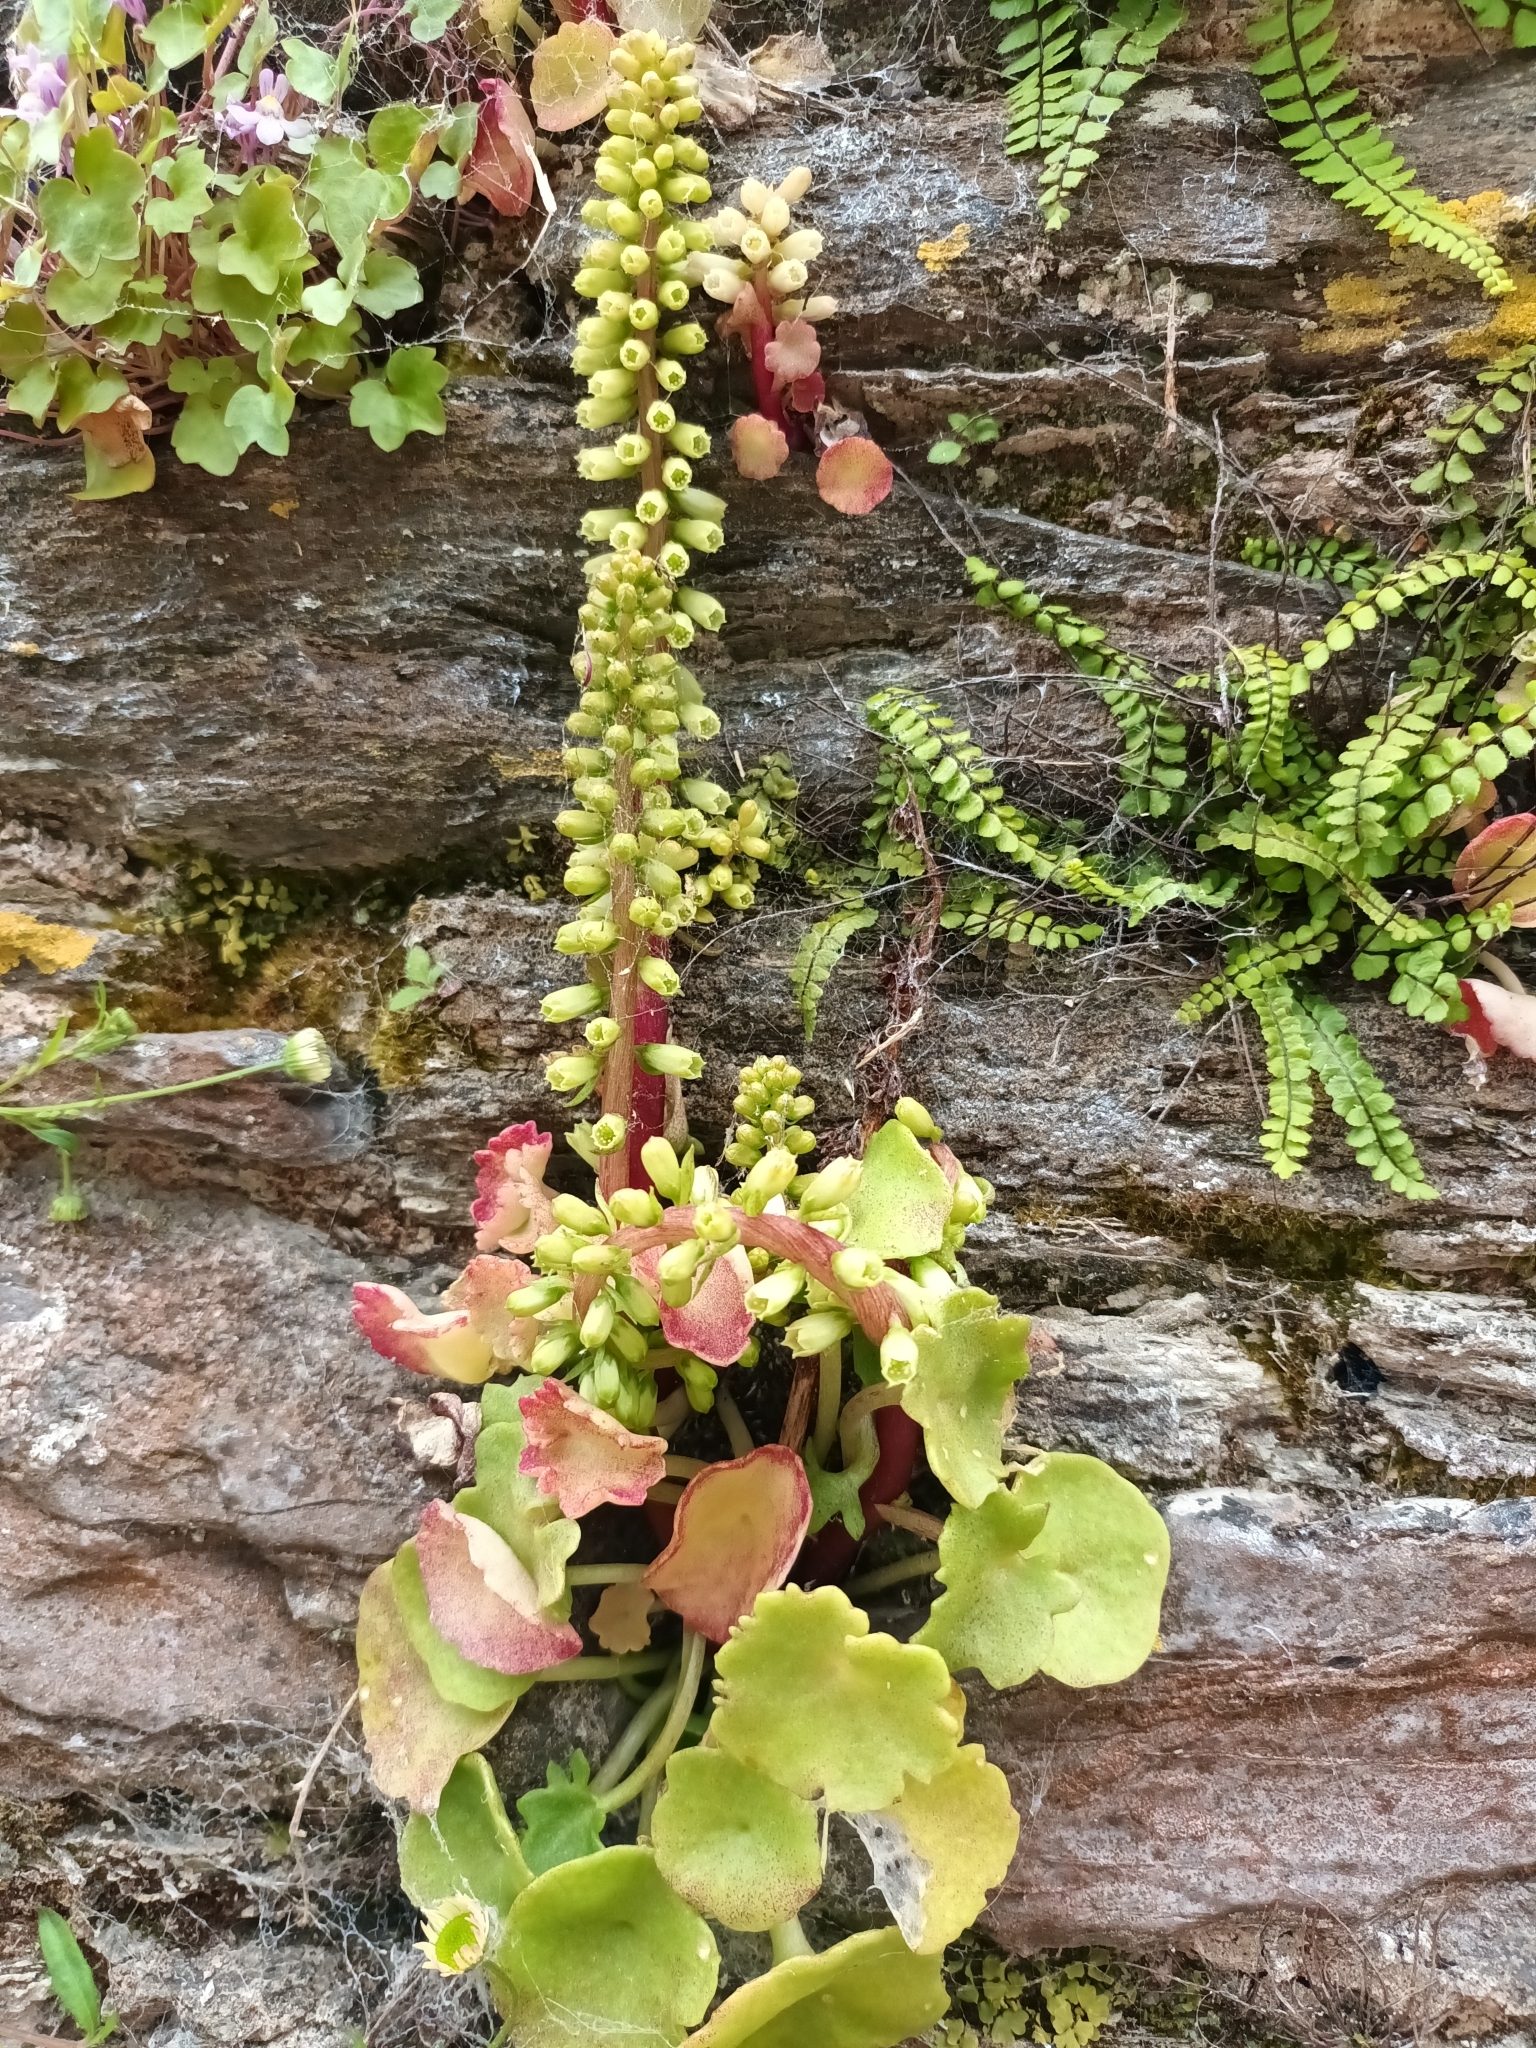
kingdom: Plantae
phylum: Tracheophyta
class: Magnoliopsida
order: Saxifragales
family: Crassulaceae
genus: Umbilicus
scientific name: Umbilicus rupestris
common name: Navelwort
